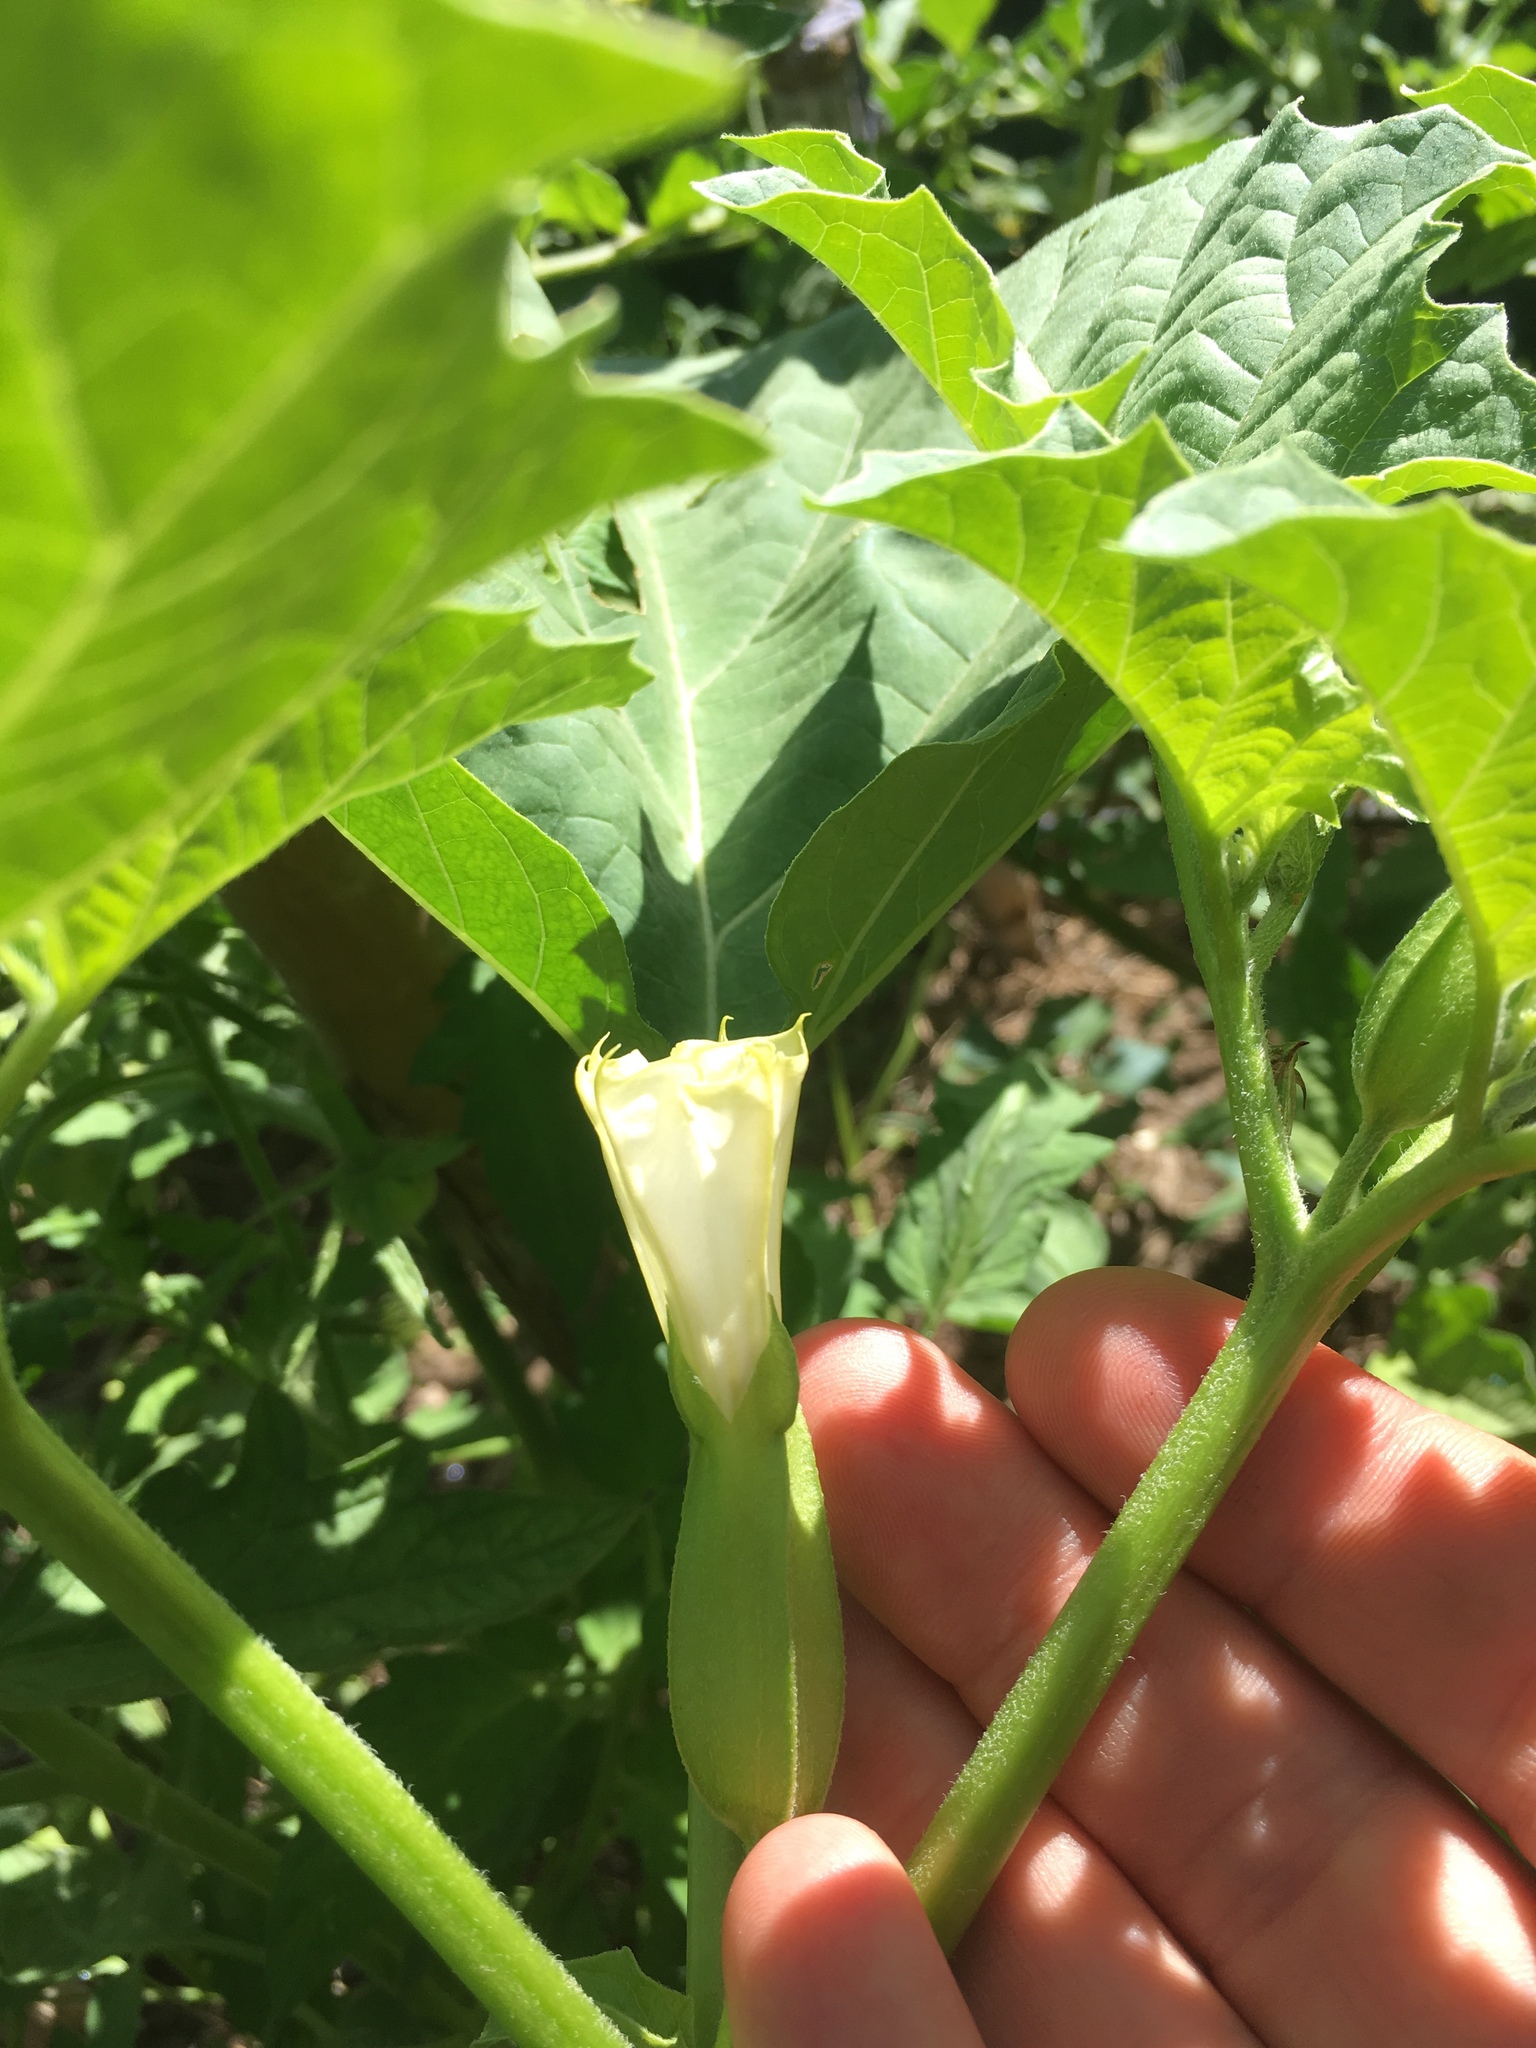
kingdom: Plantae
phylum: Tracheophyta
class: Magnoliopsida
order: Solanales
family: Solanaceae
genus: Datura
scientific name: Datura ferox
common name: Angel's-trumpets
